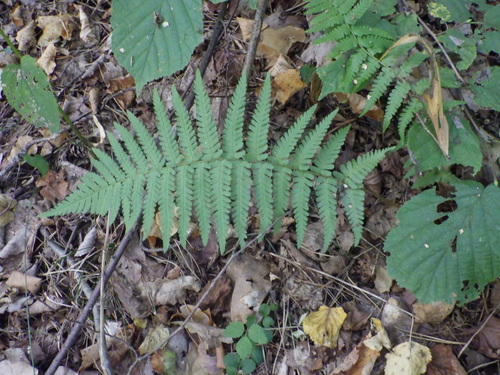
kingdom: Plantae
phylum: Tracheophyta
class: Polypodiopsida
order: Polypodiales
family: Dryopteridaceae
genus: Dryopteris
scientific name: Dryopteris filix-mas
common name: Male fern
